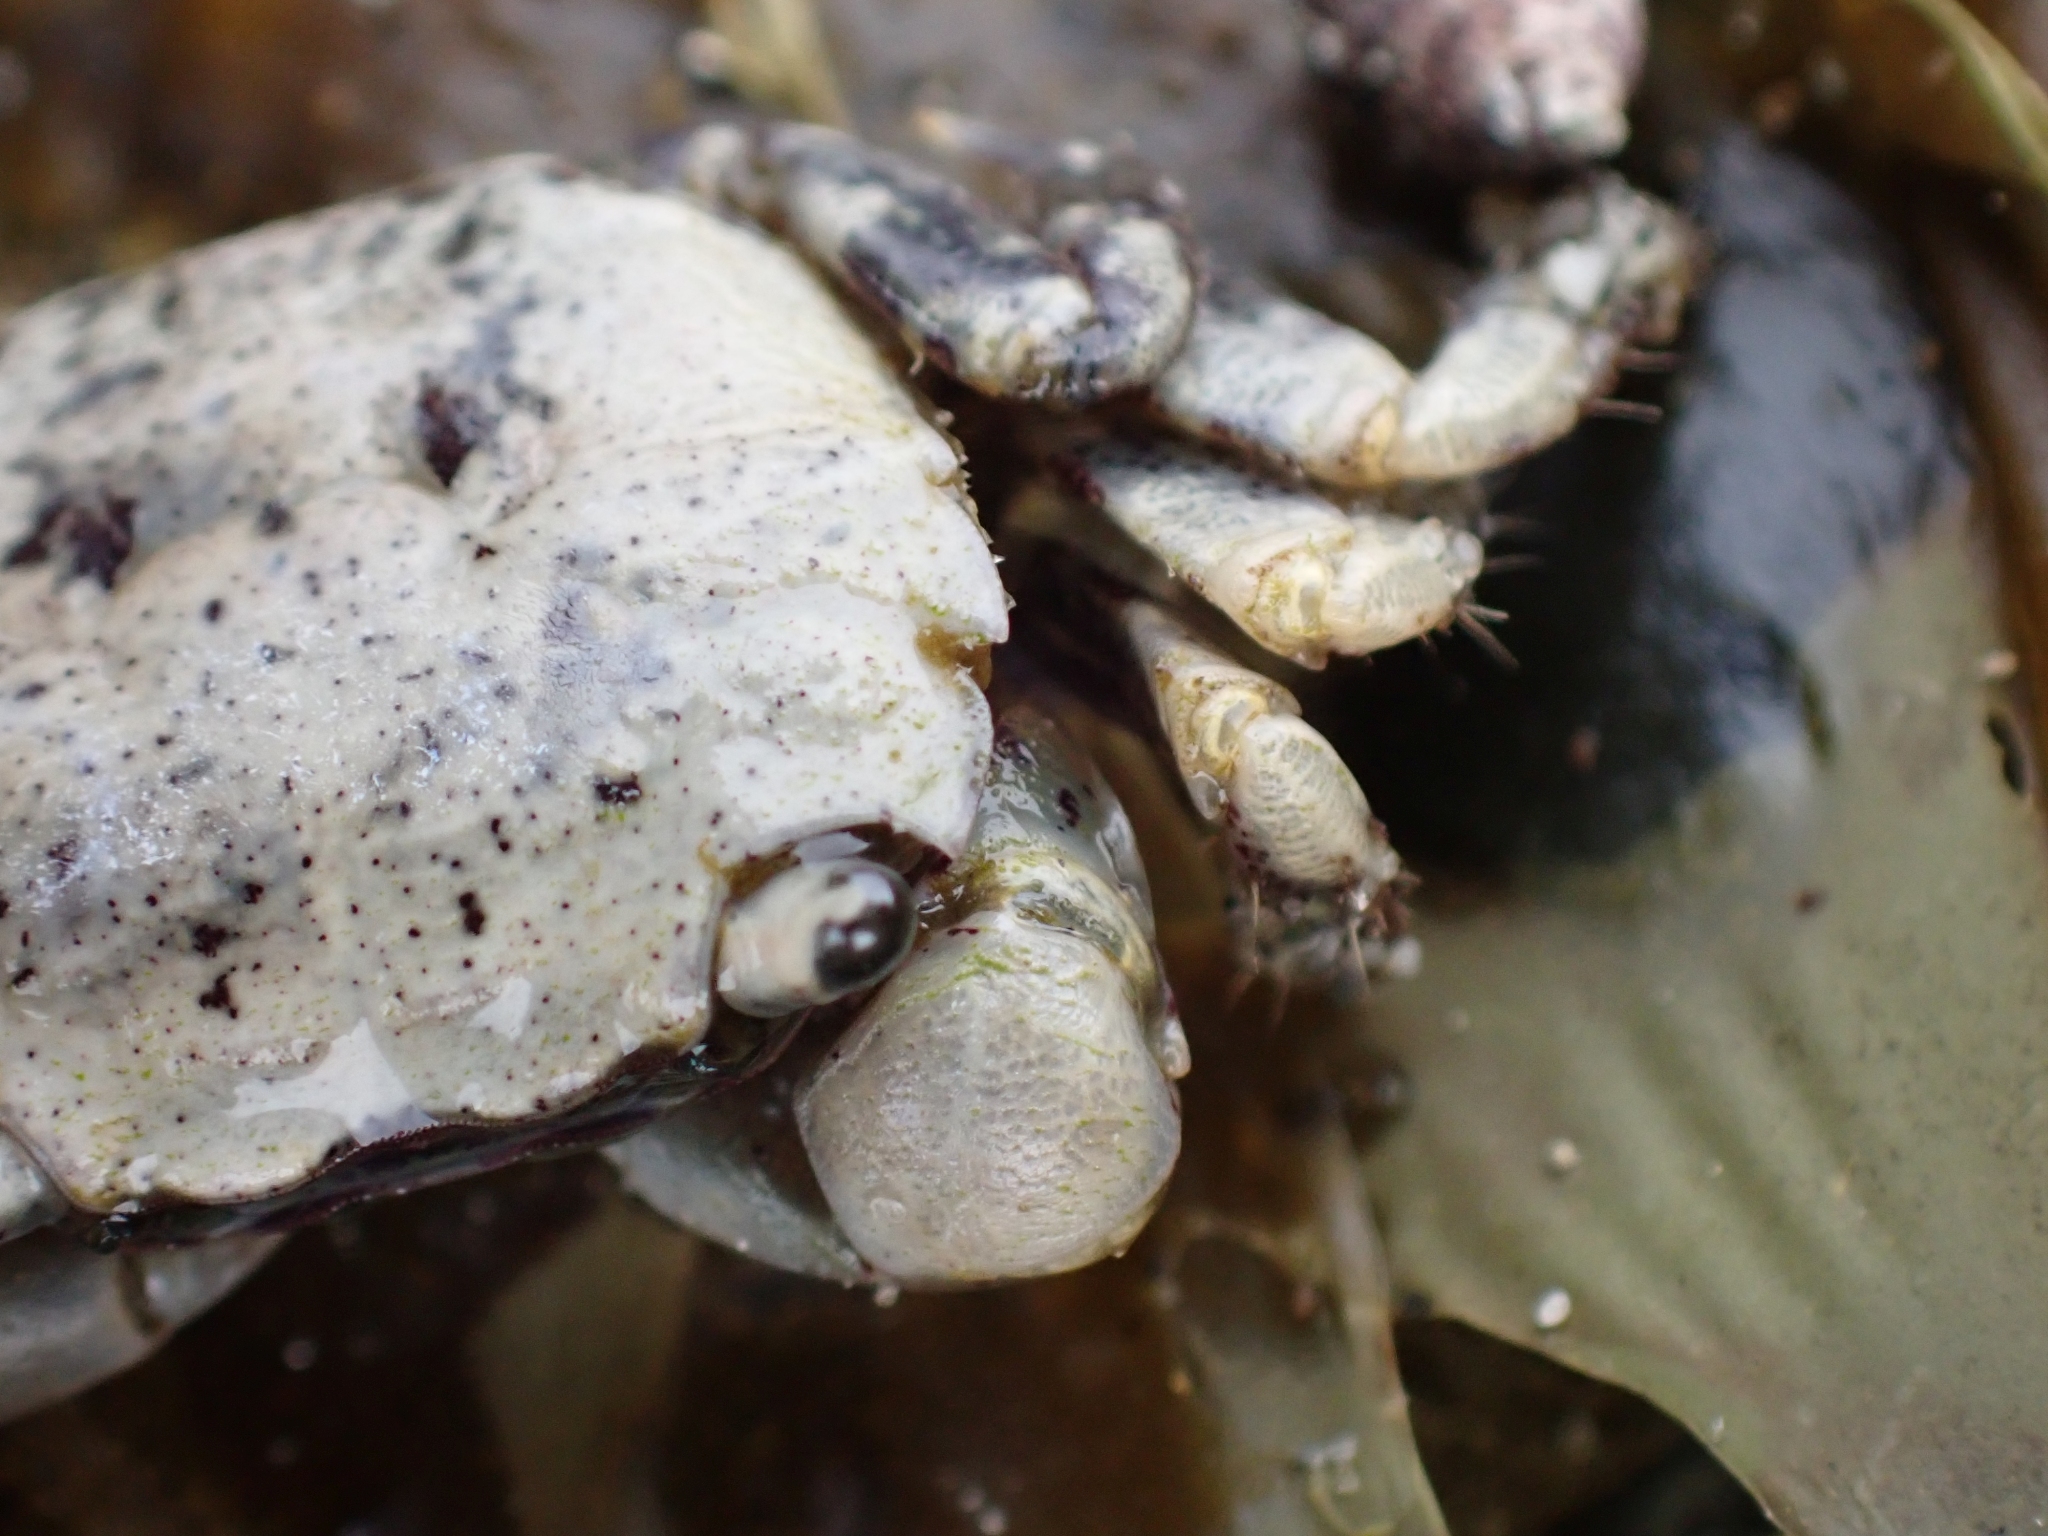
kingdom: Animalia
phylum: Arthropoda
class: Malacostraca
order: Decapoda
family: Varunidae
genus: Hemigrapsus
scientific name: Hemigrapsus oregonensis
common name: Yellow shore crab
